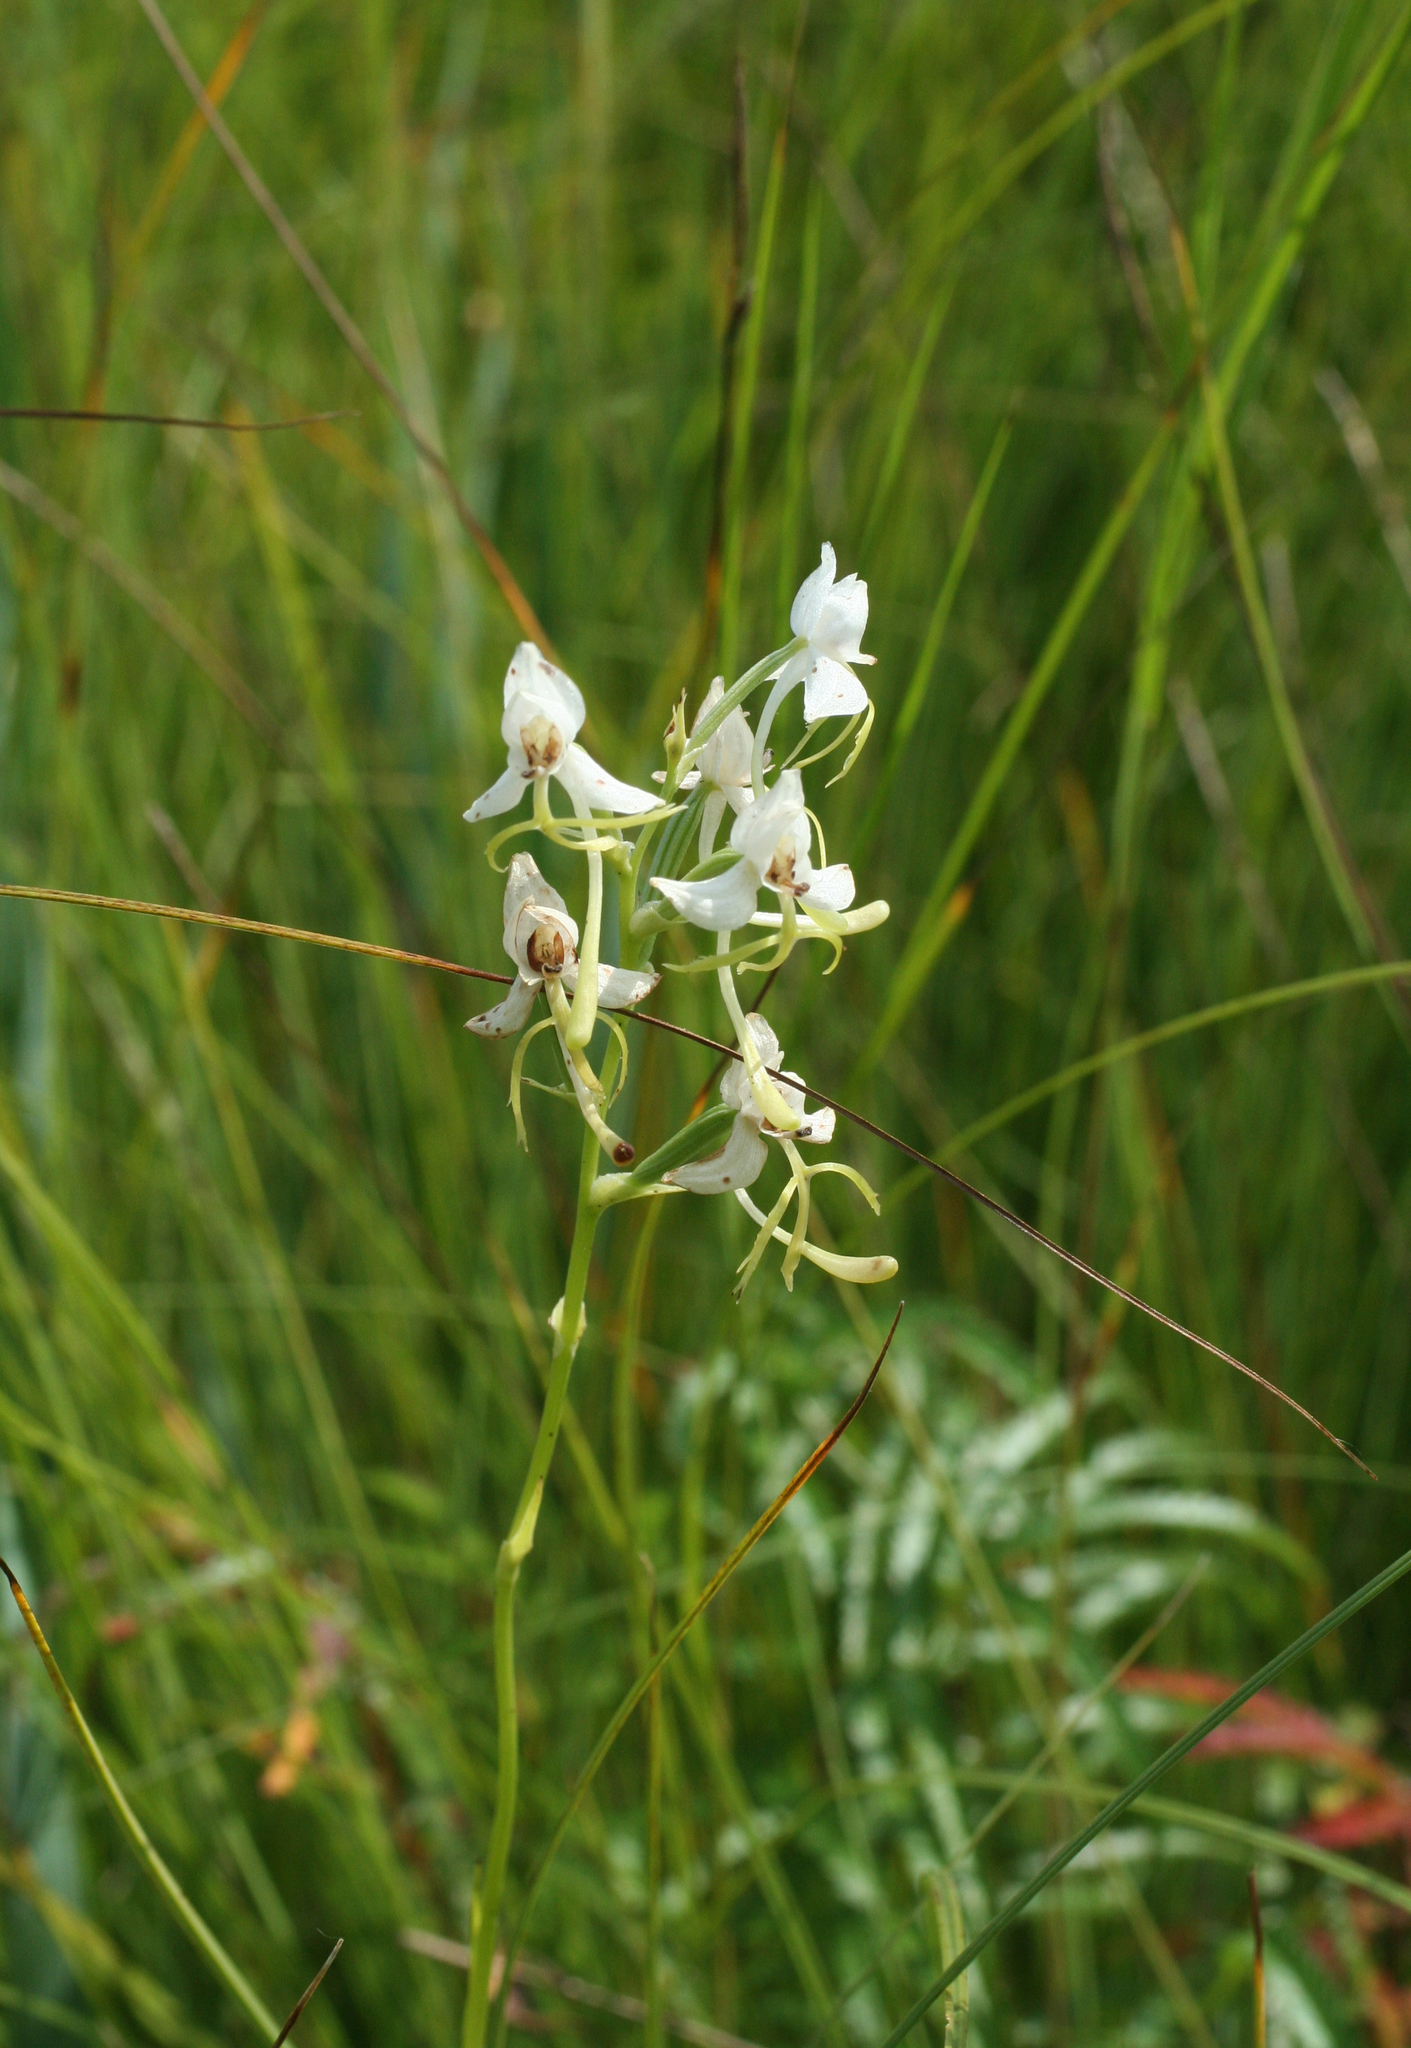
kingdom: Plantae
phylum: Tracheophyta
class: Liliopsida
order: Asparagales
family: Orchidaceae
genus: Habenaria
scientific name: Habenaria linearifolia
